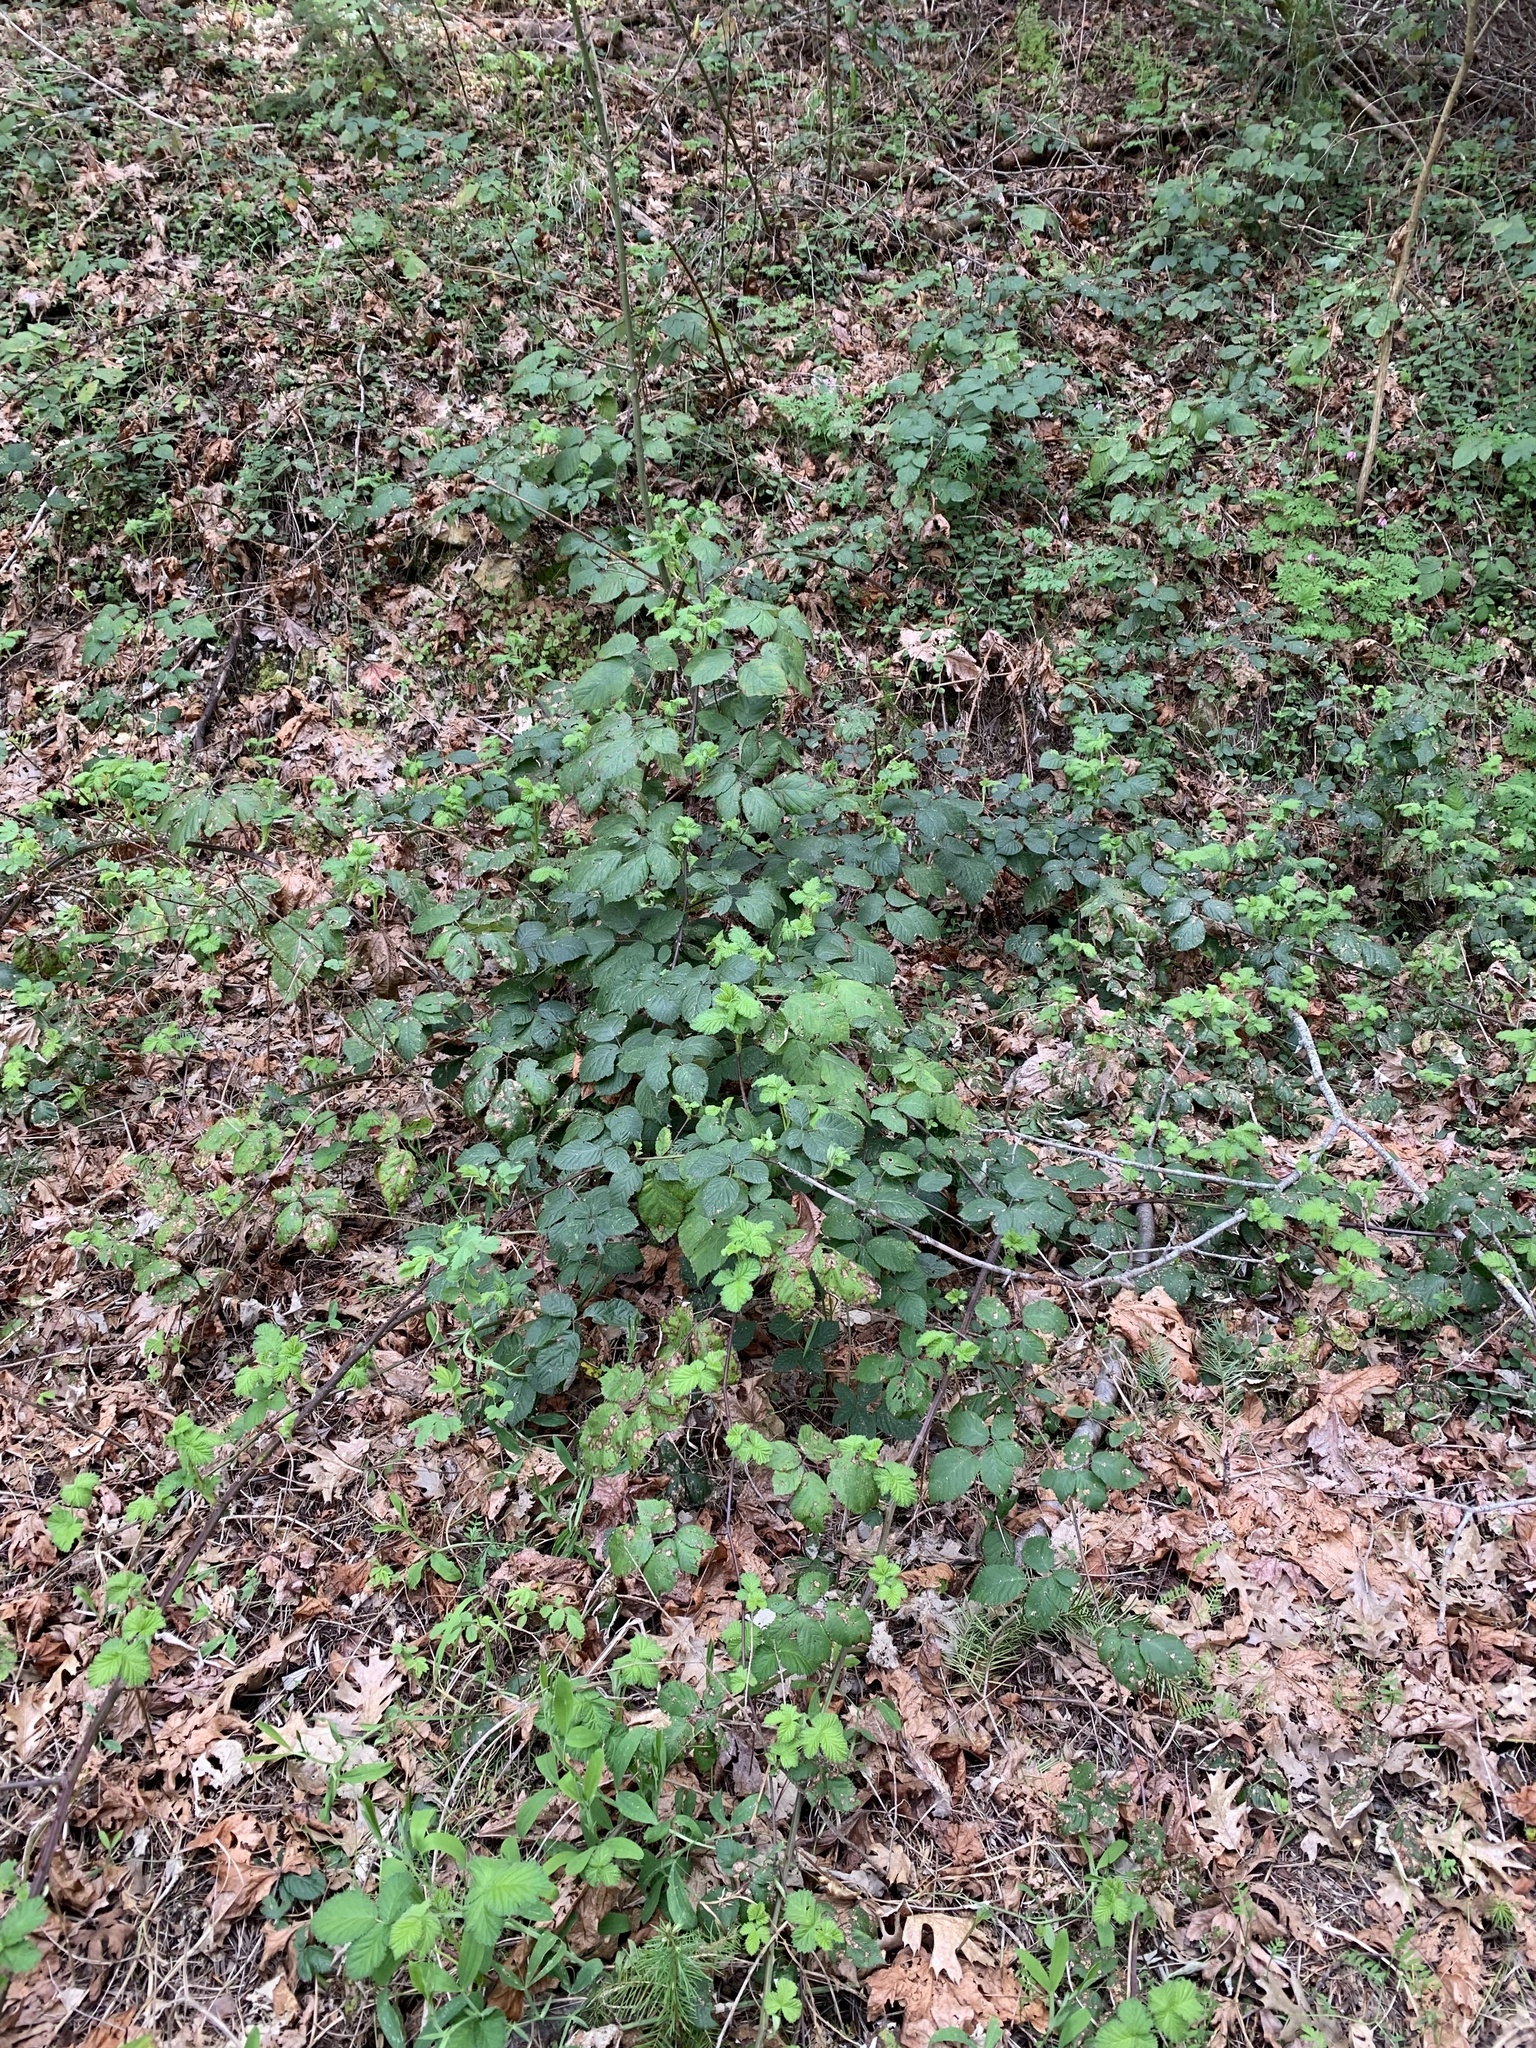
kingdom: Plantae
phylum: Tracheophyta
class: Magnoliopsida
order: Rosales
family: Rosaceae
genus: Rubus
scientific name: Rubus armeniacus
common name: Himalayan blackberry
